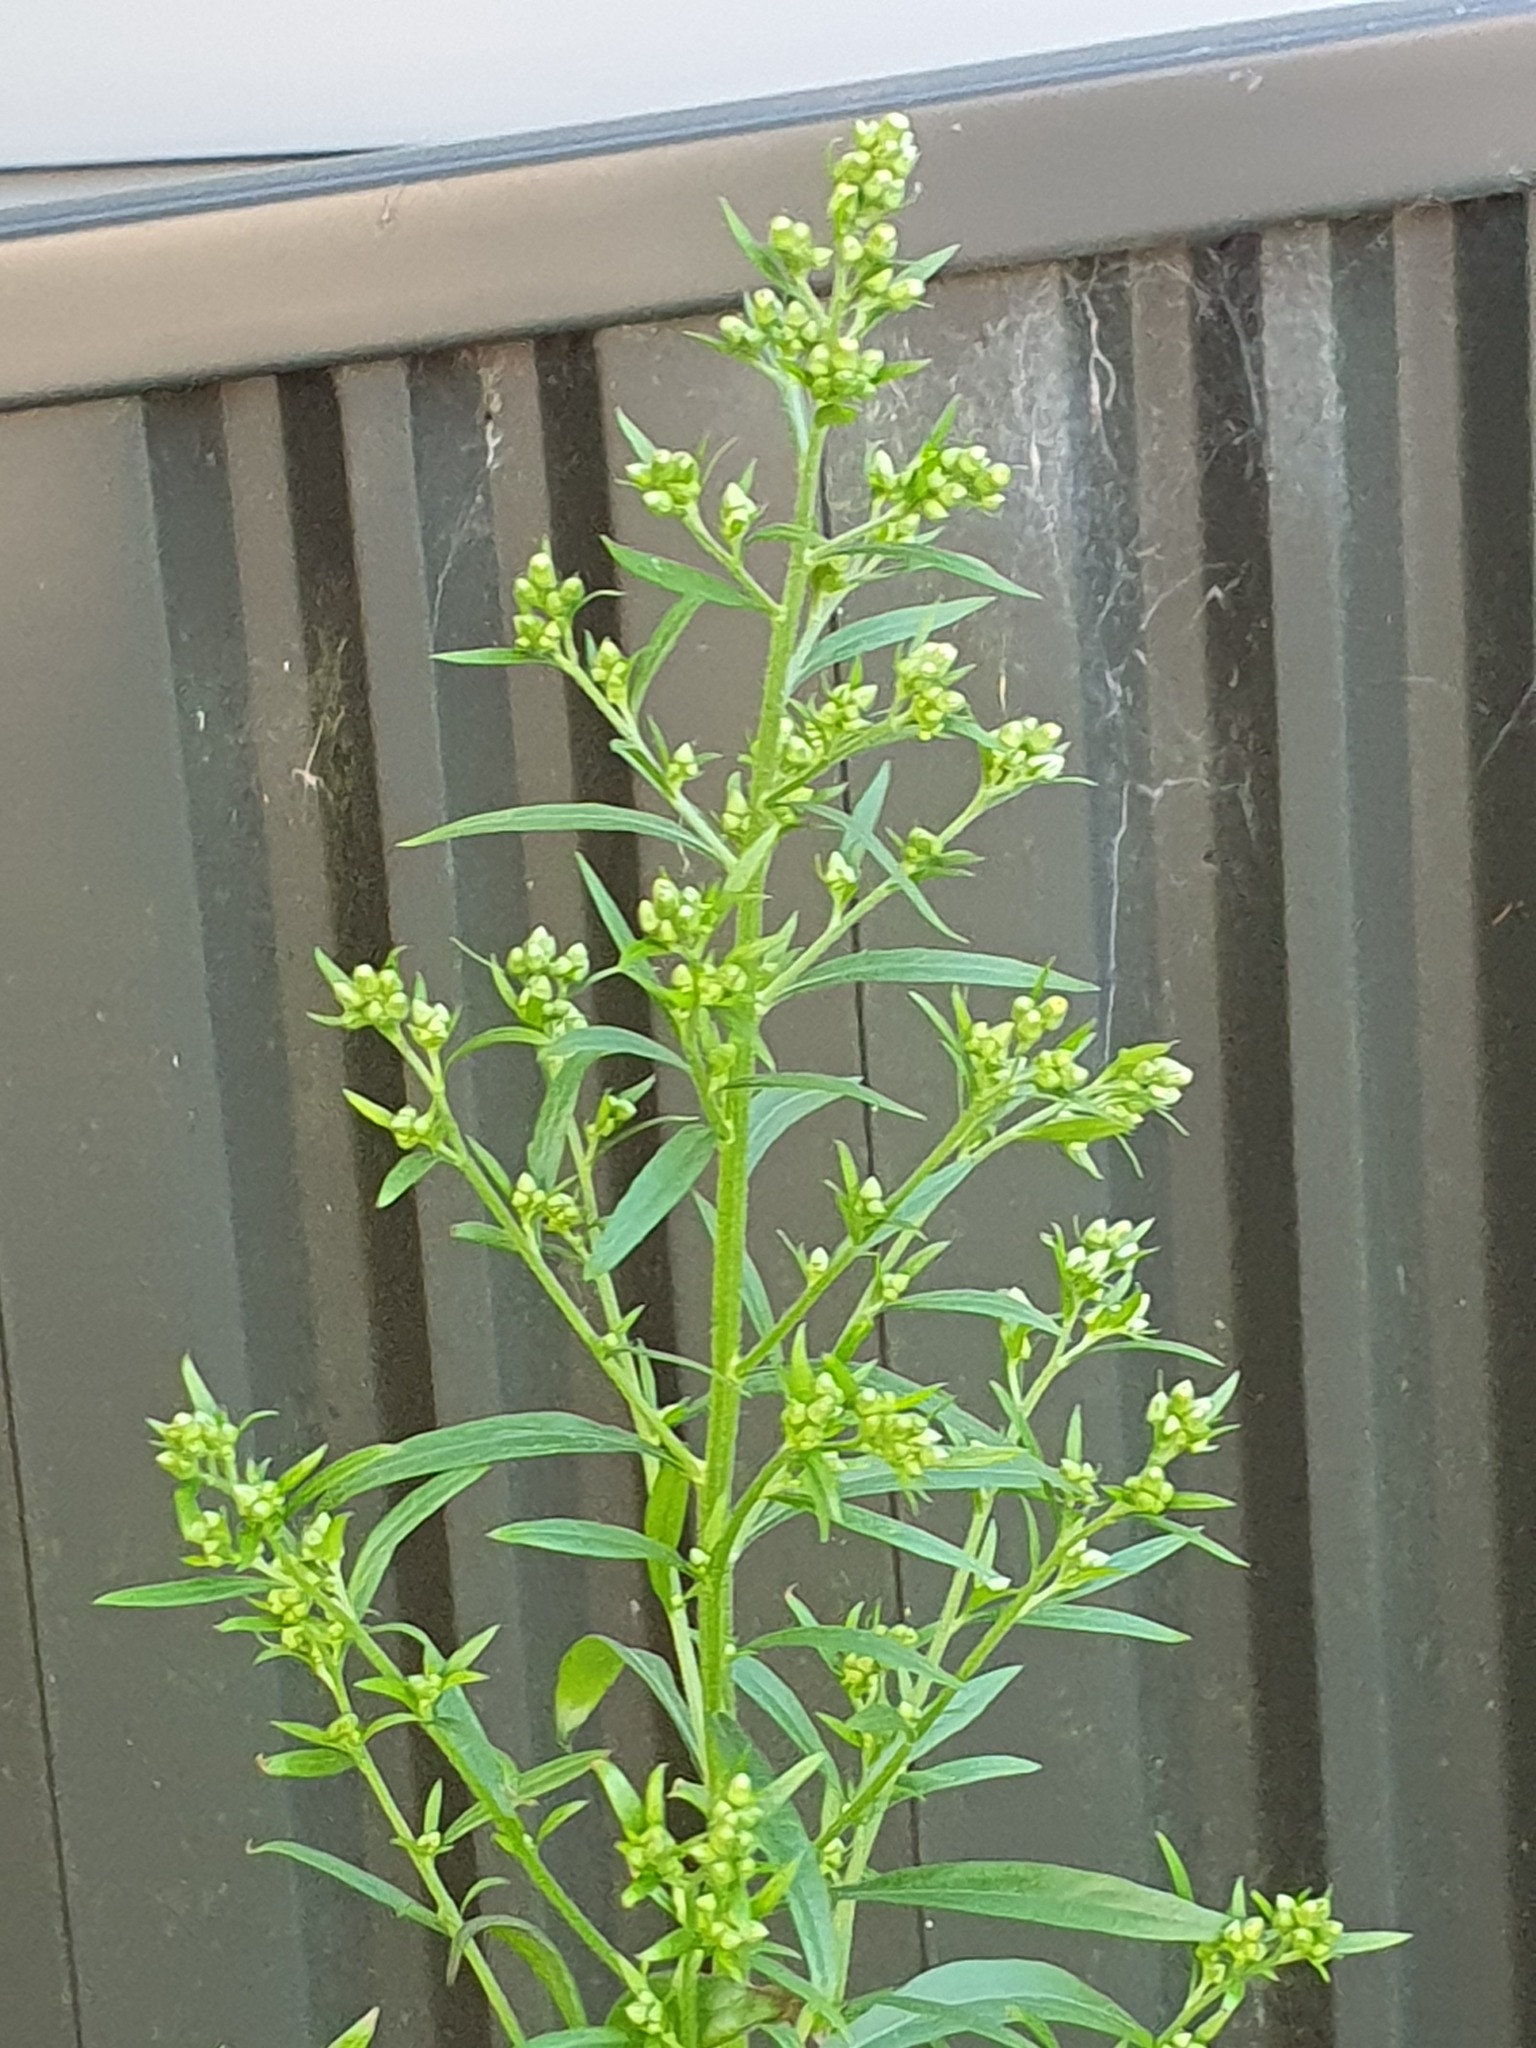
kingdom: Plantae
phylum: Tracheophyta
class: Magnoliopsida
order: Asterales
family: Asteraceae
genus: Erigeron
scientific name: Erigeron sumatrensis
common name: Daisy
